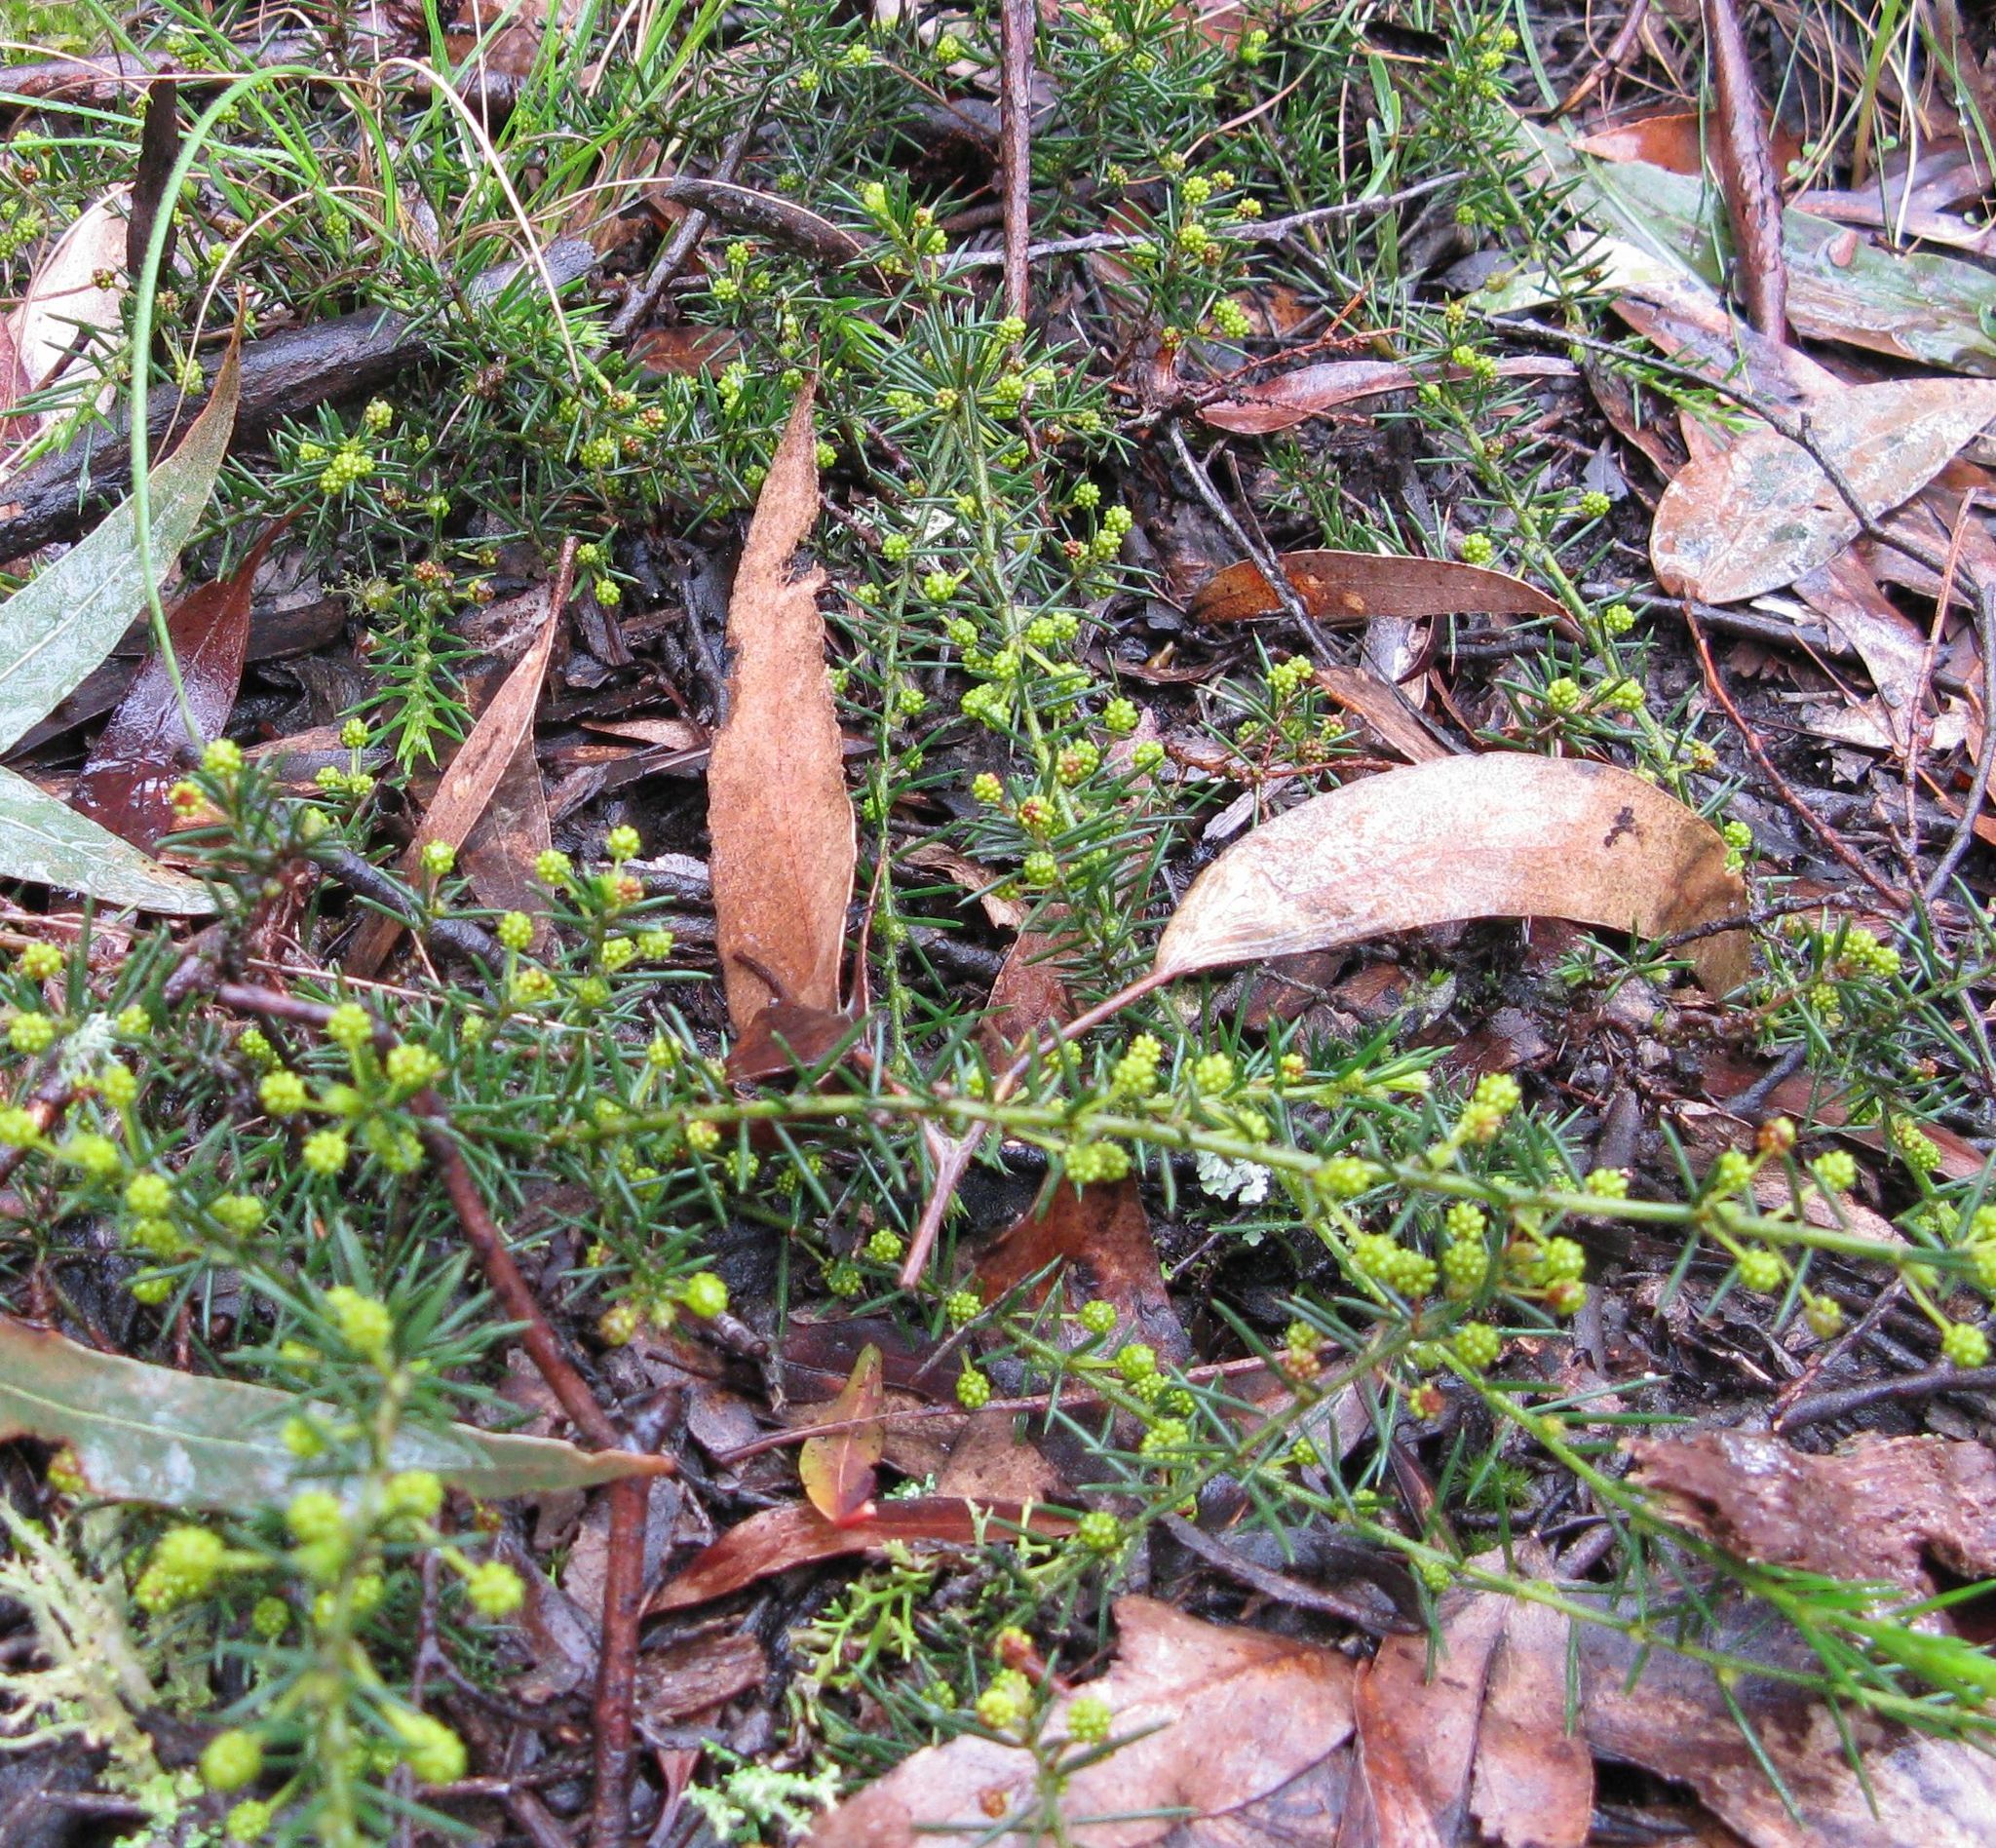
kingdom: Plantae
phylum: Tracheophyta
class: Magnoliopsida
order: Fabales
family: Fabaceae
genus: Acacia
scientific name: Acacia aculeatissima
